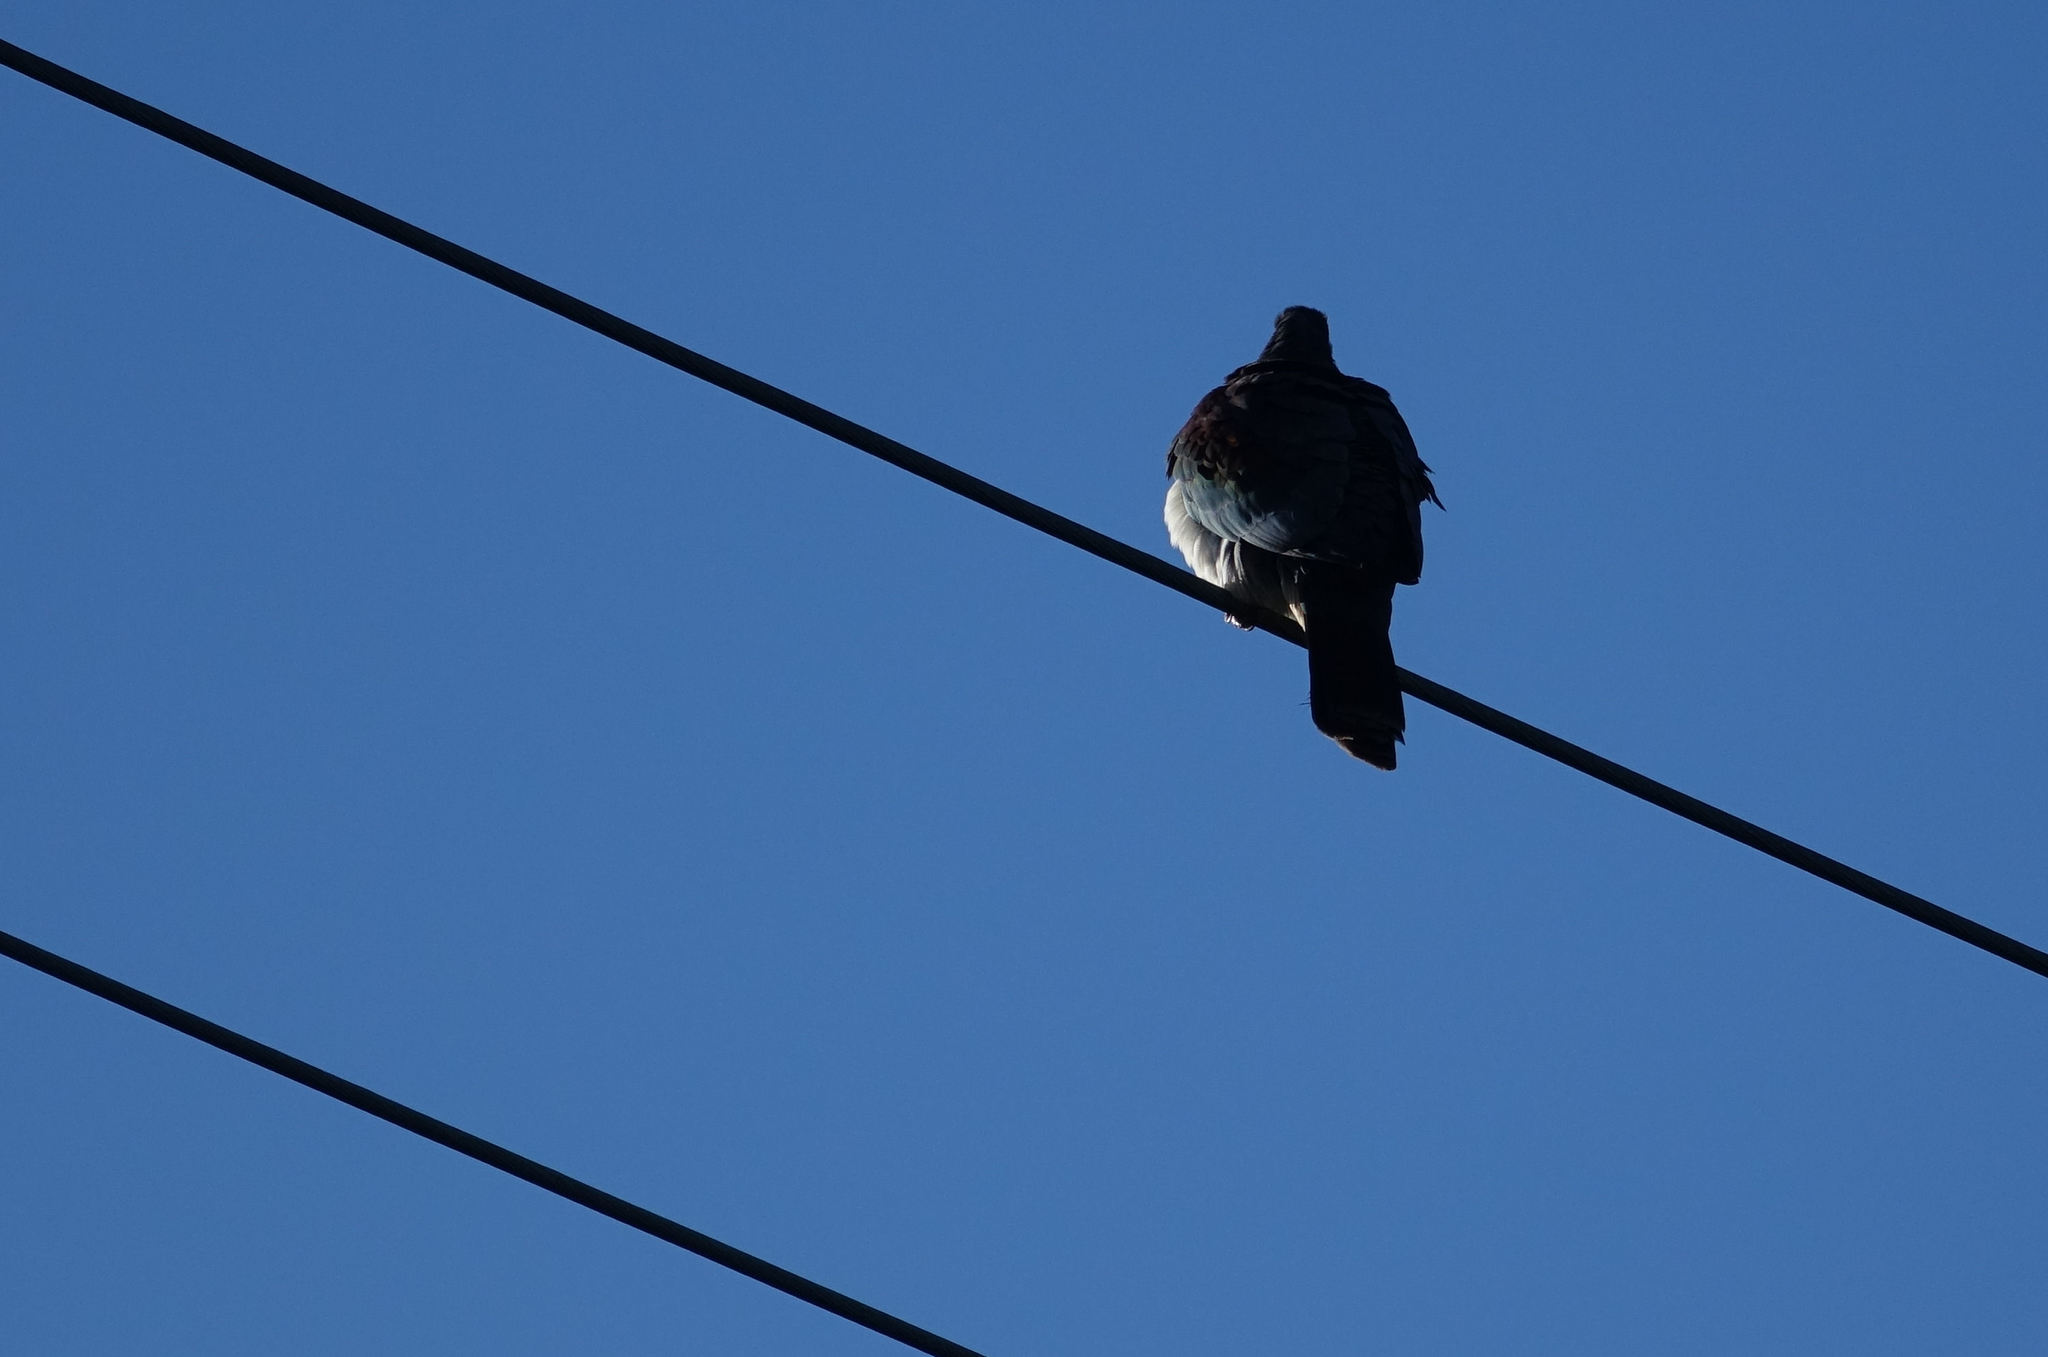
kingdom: Animalia
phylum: Chordata
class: Aves
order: Columbiformes
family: Columbidae
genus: Hemiphaga
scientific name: Hemiphaga novaeseelandiae
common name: New zealand pigeon
